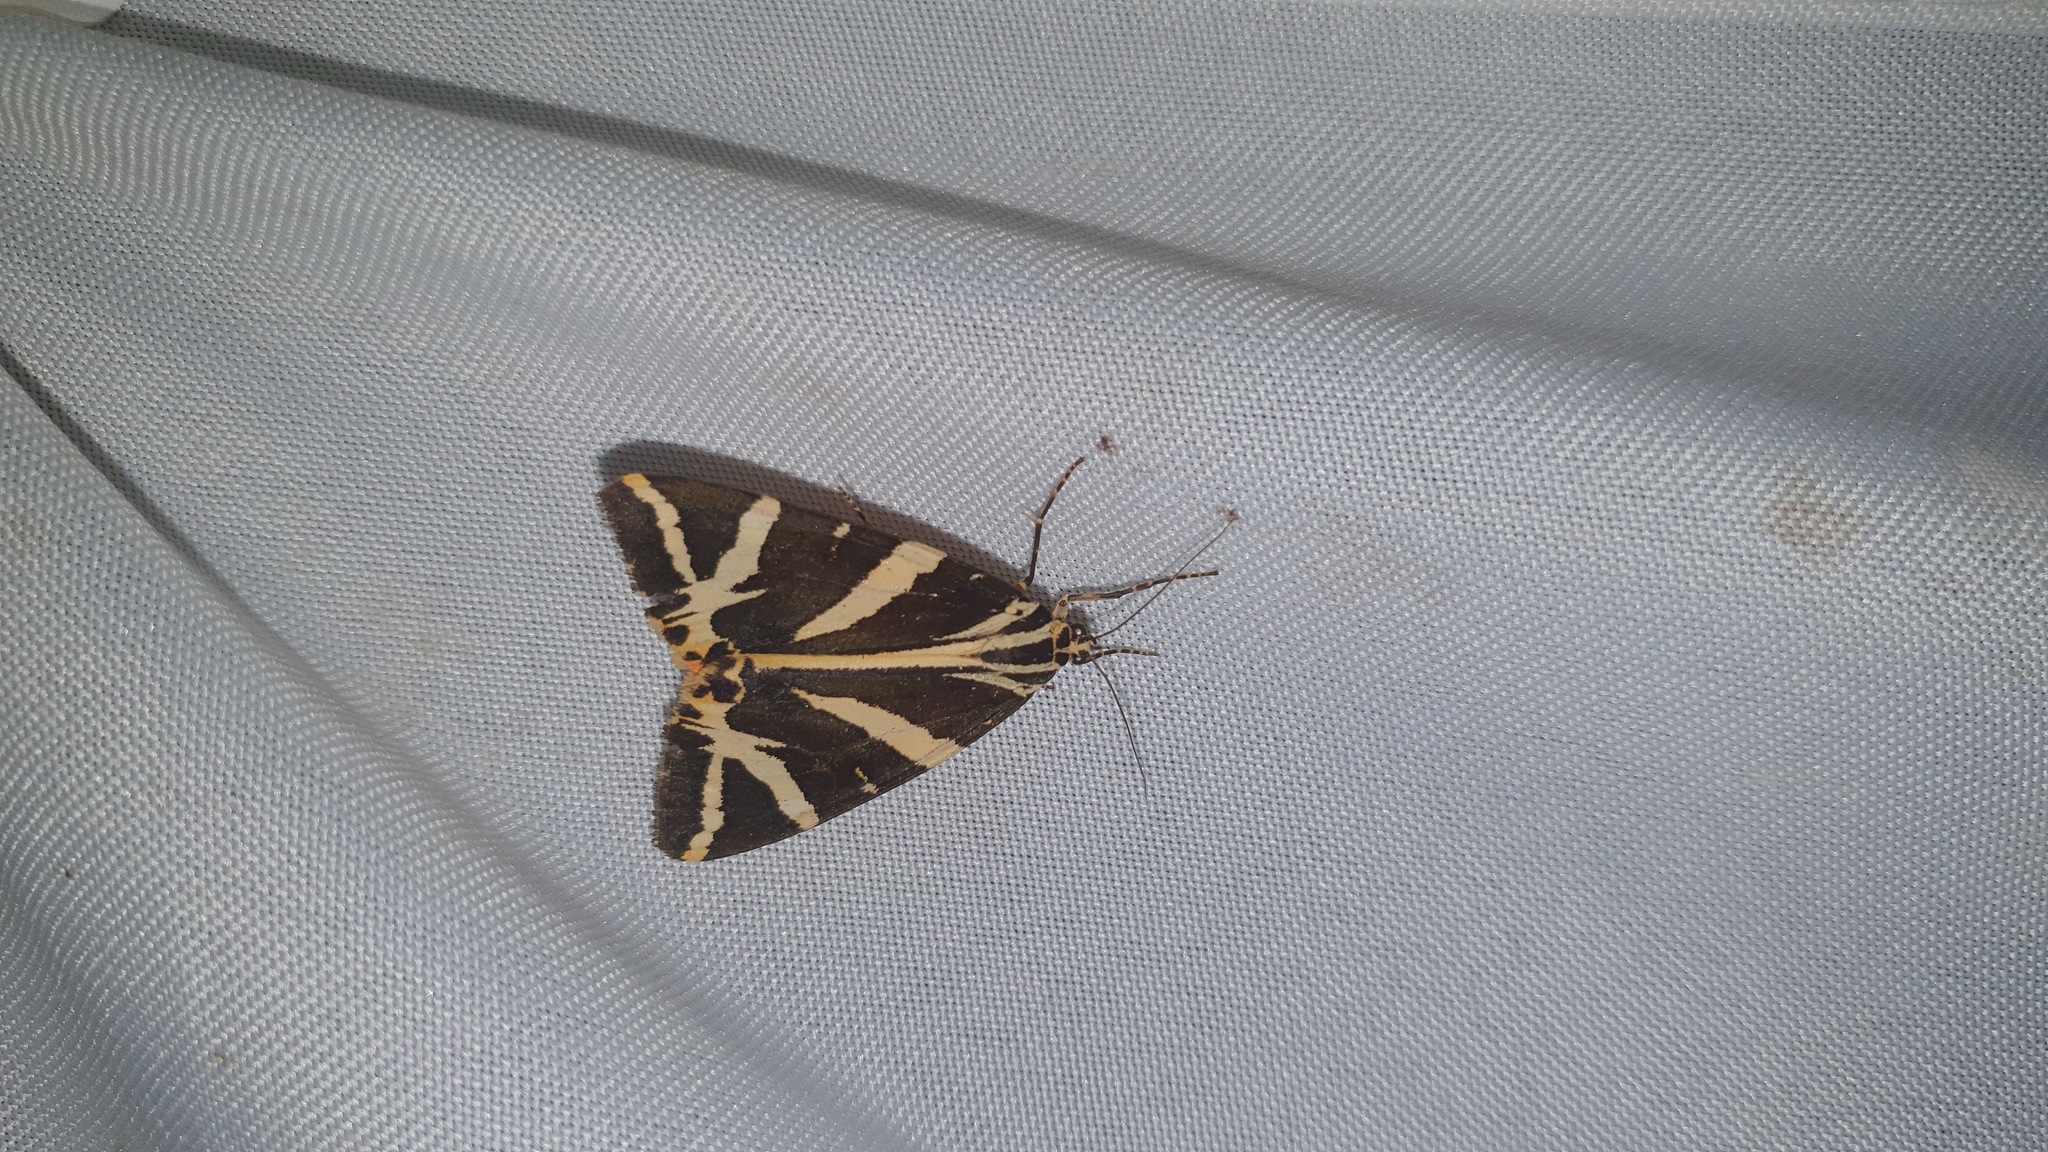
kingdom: Animalia
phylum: Arthropoda
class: Insecta
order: Lepidoptera
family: Erebidae
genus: Euplagia
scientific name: Euplagia quadripunctaria
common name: Jersey tiger
